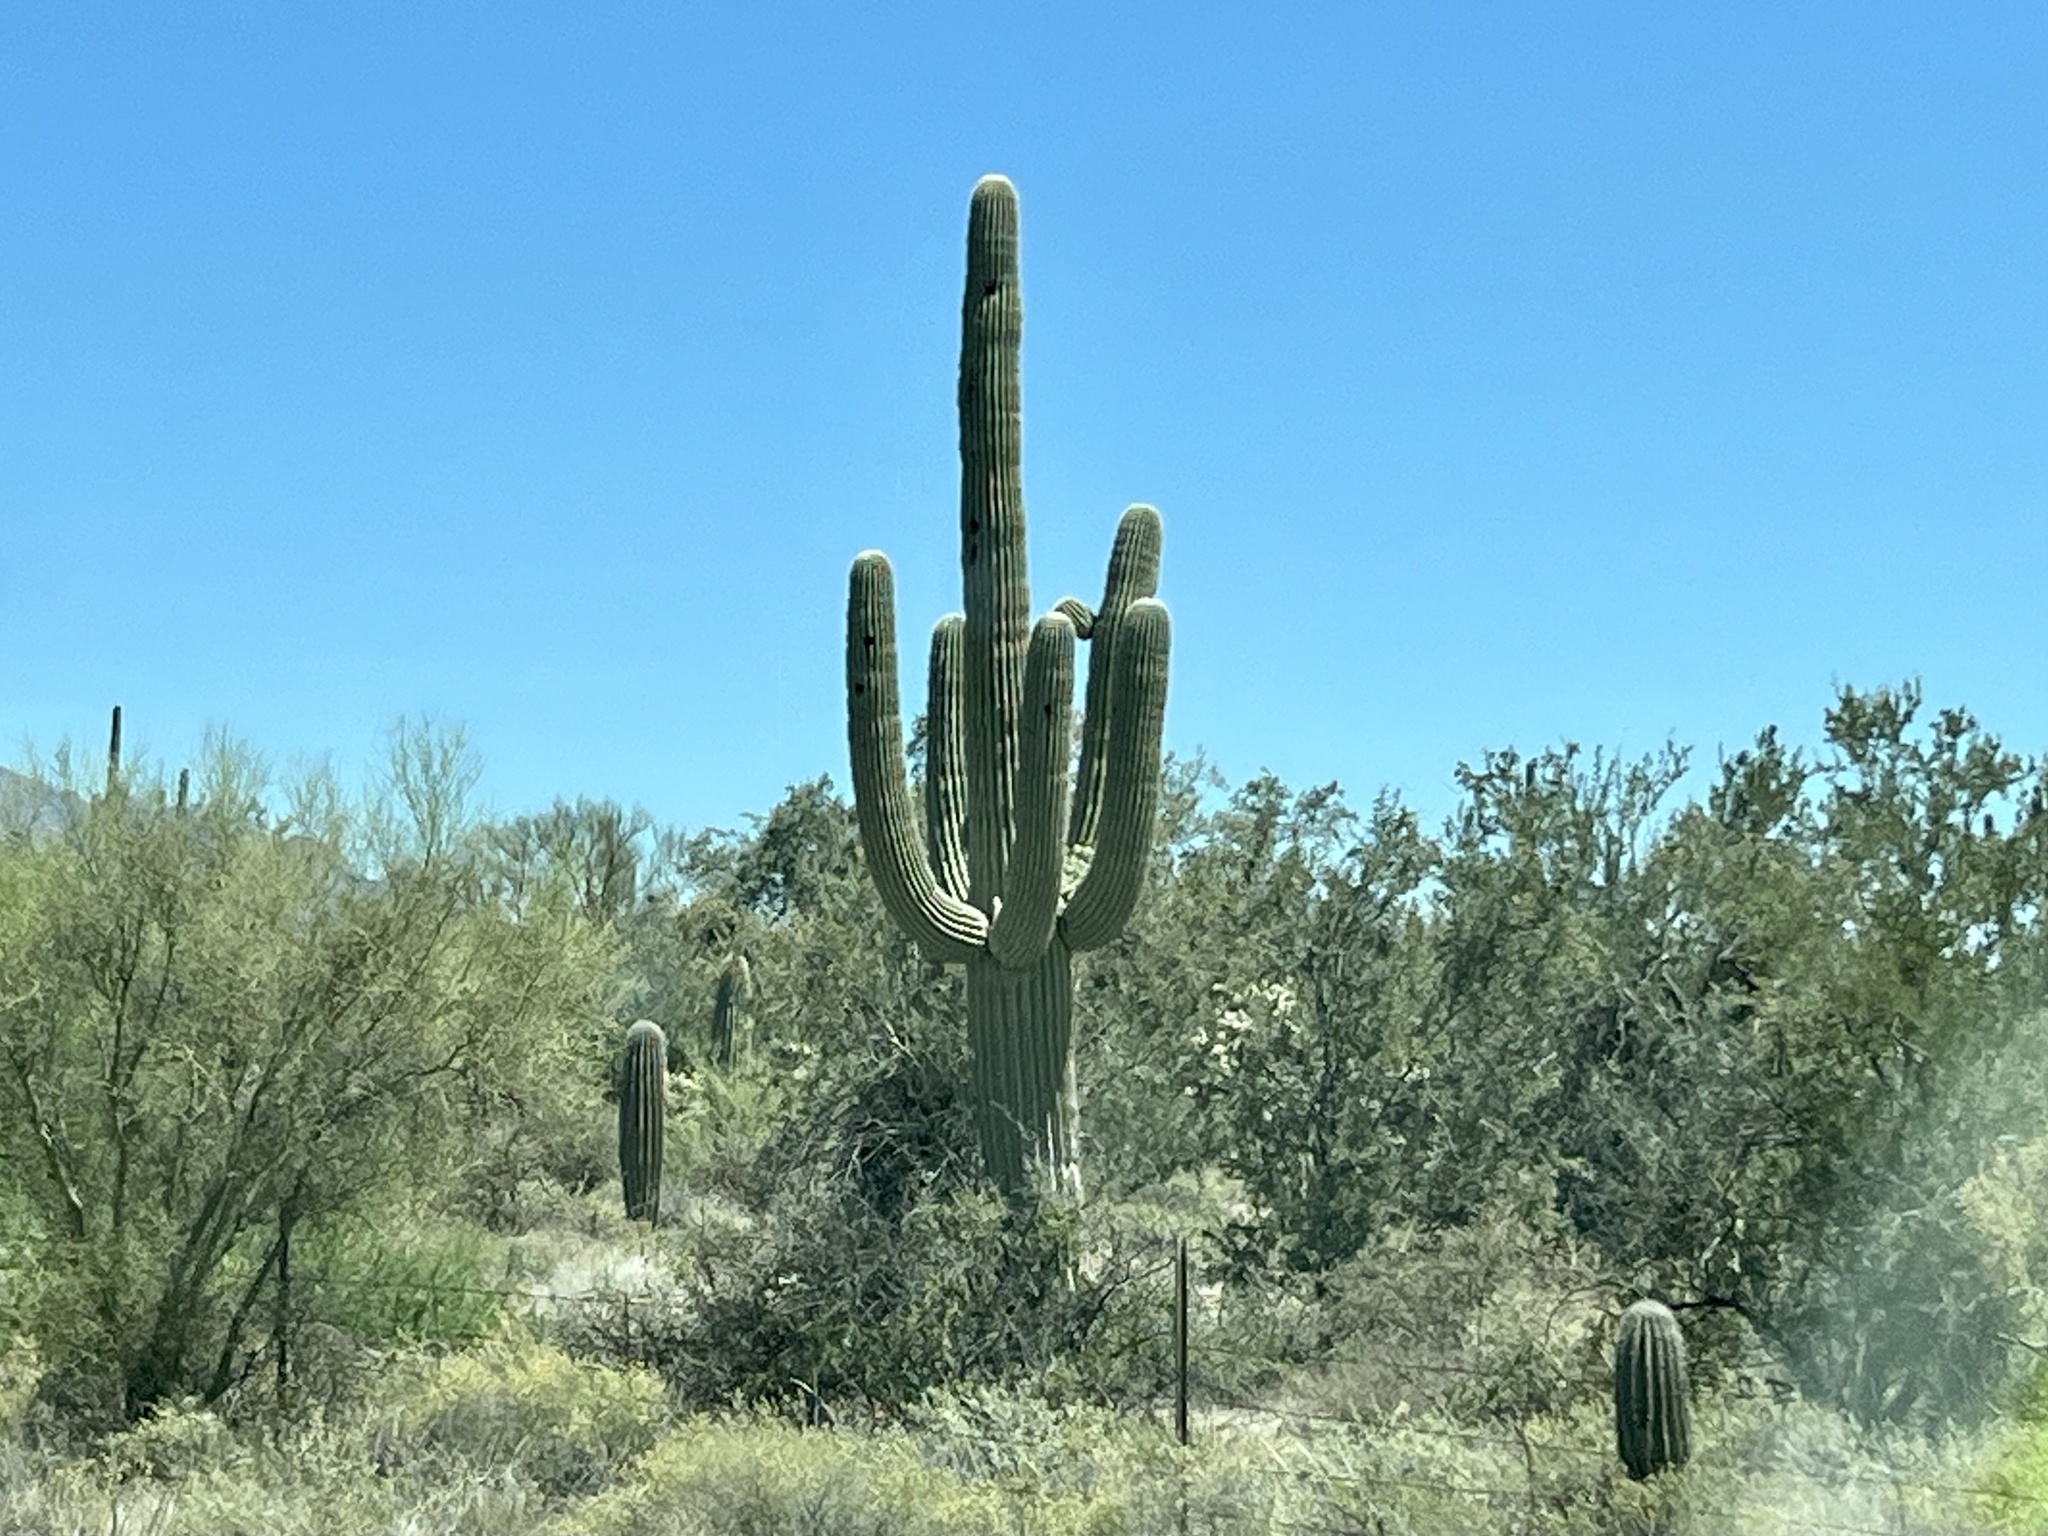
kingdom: Plantae
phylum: Tracheophyta
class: Magnoliopsida
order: Caryophyllales
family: Cactaceae
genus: Carnegiea
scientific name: Carnegiea gigantea
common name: Saguaro
